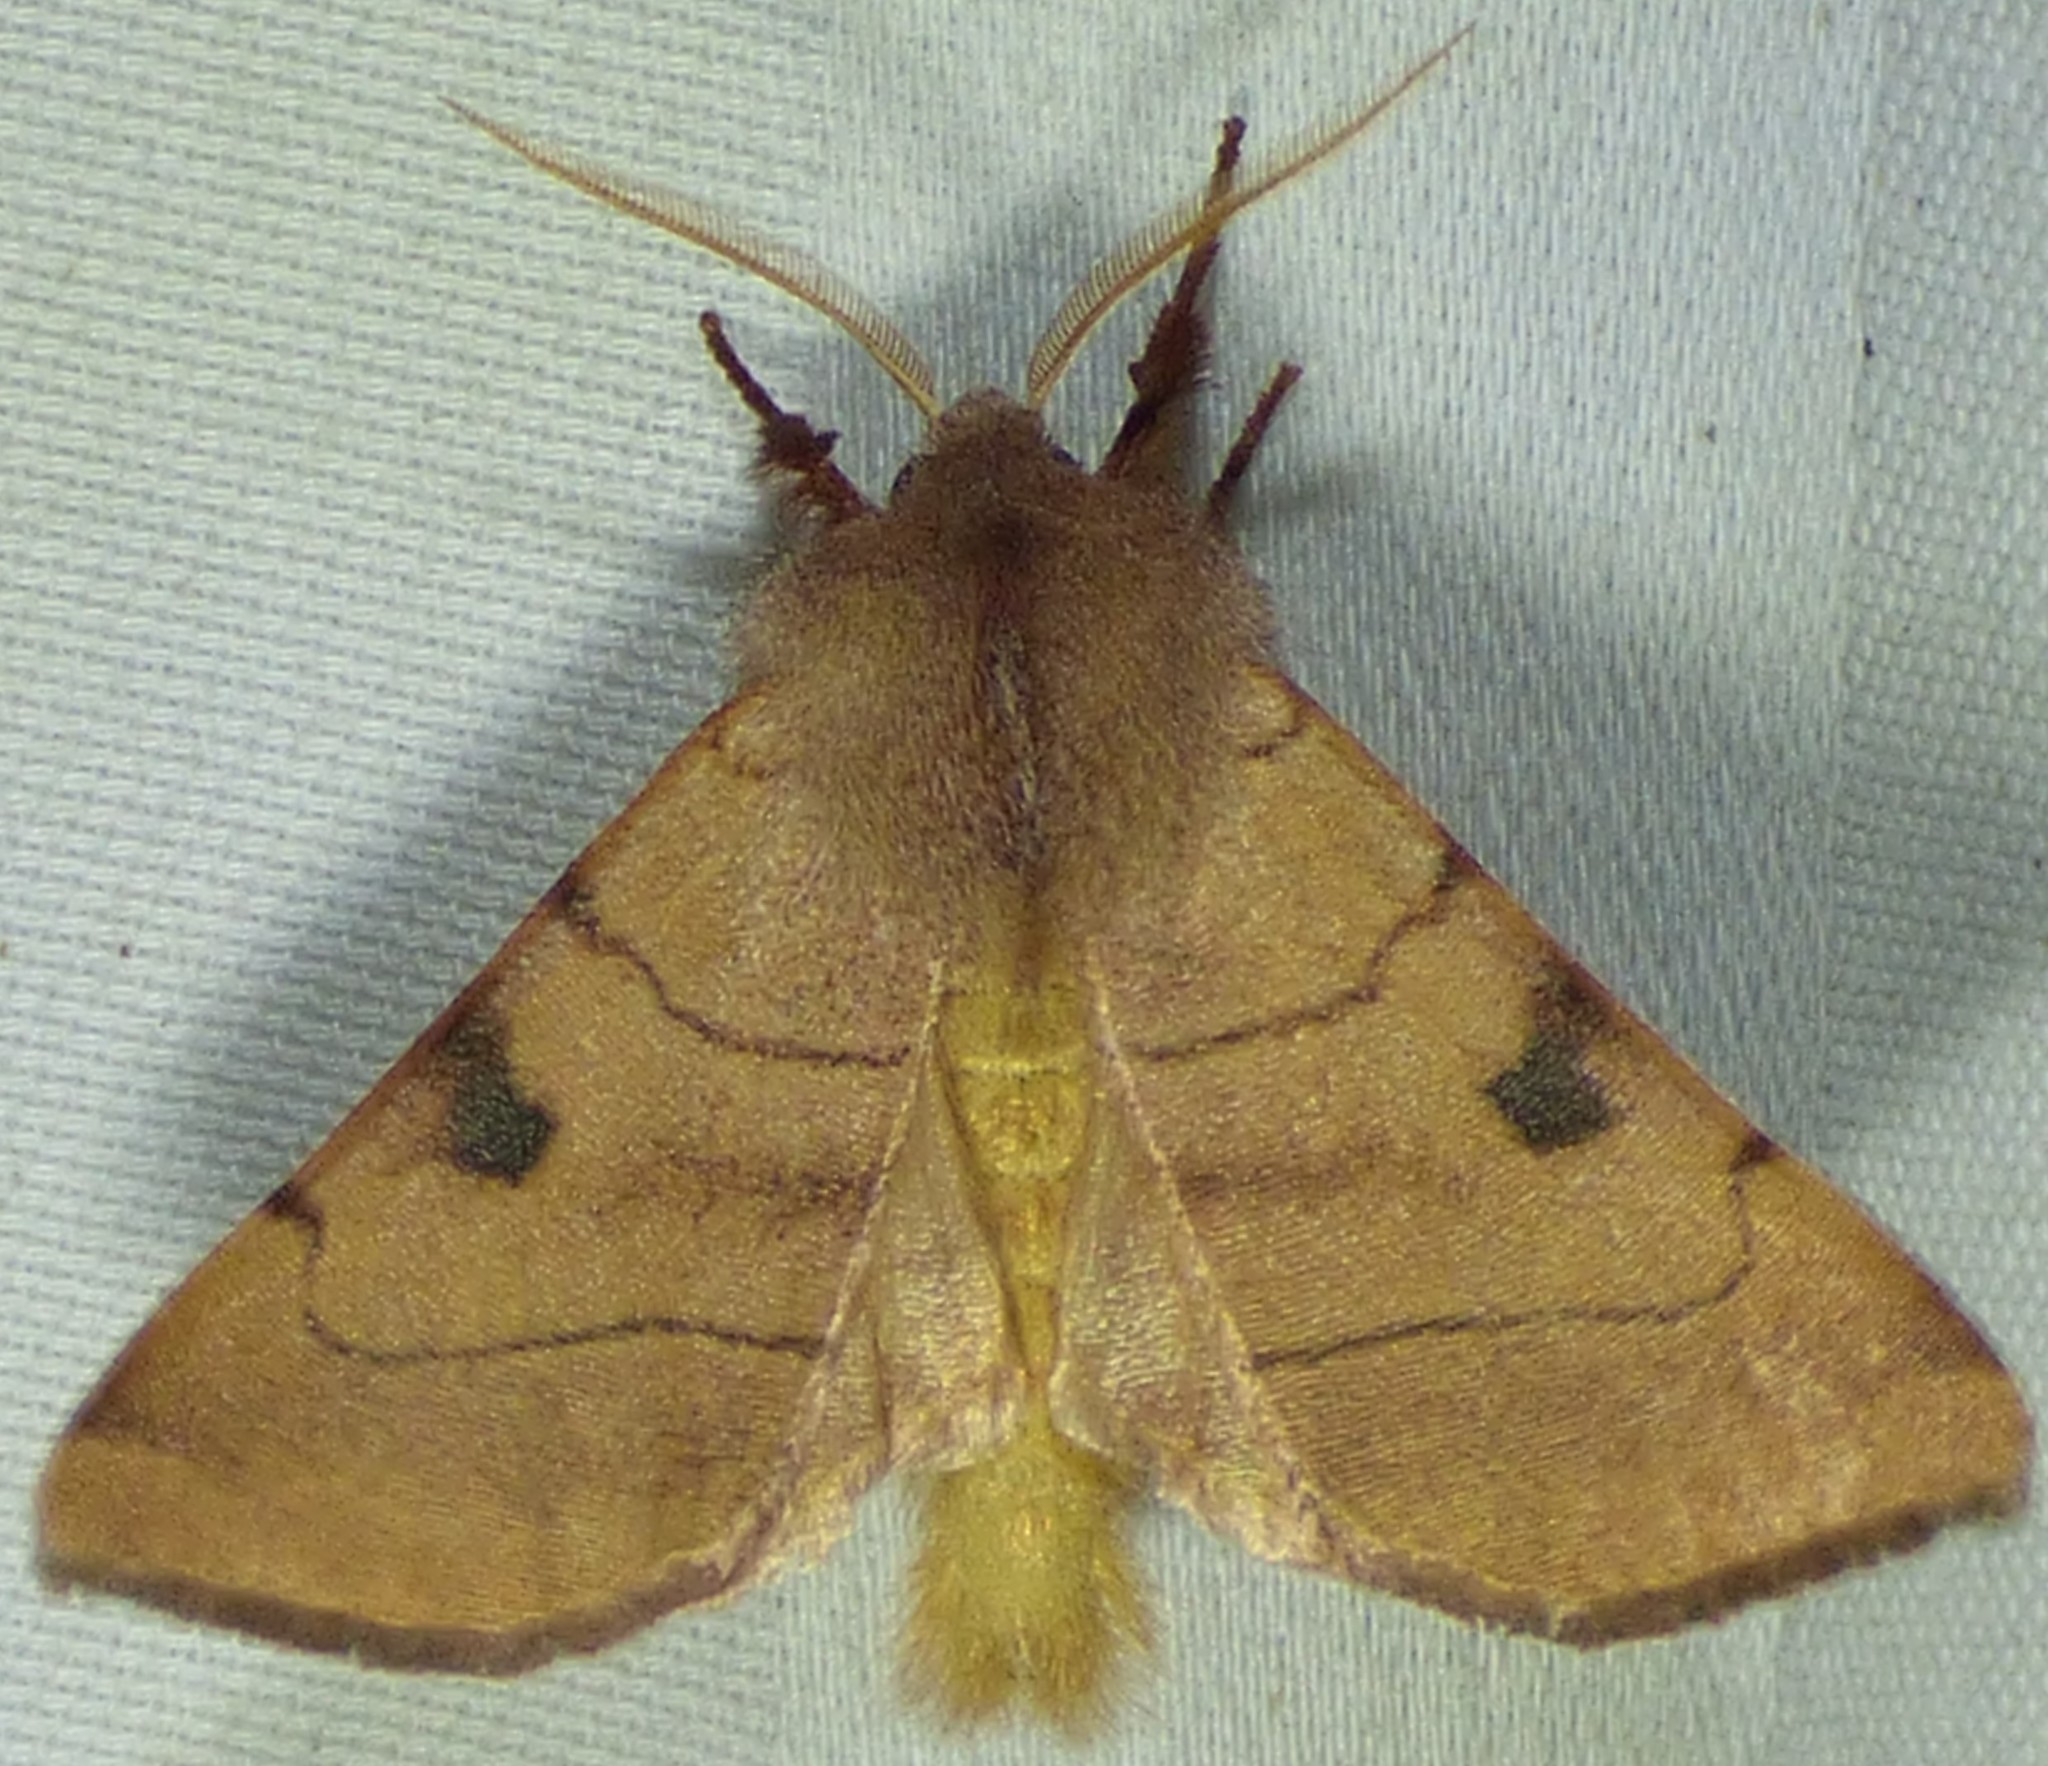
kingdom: Animalia
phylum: Arthropoda
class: Insecta
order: Lepidoptera
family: Noctuidae
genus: Choephora
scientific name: Choephora fungorum
